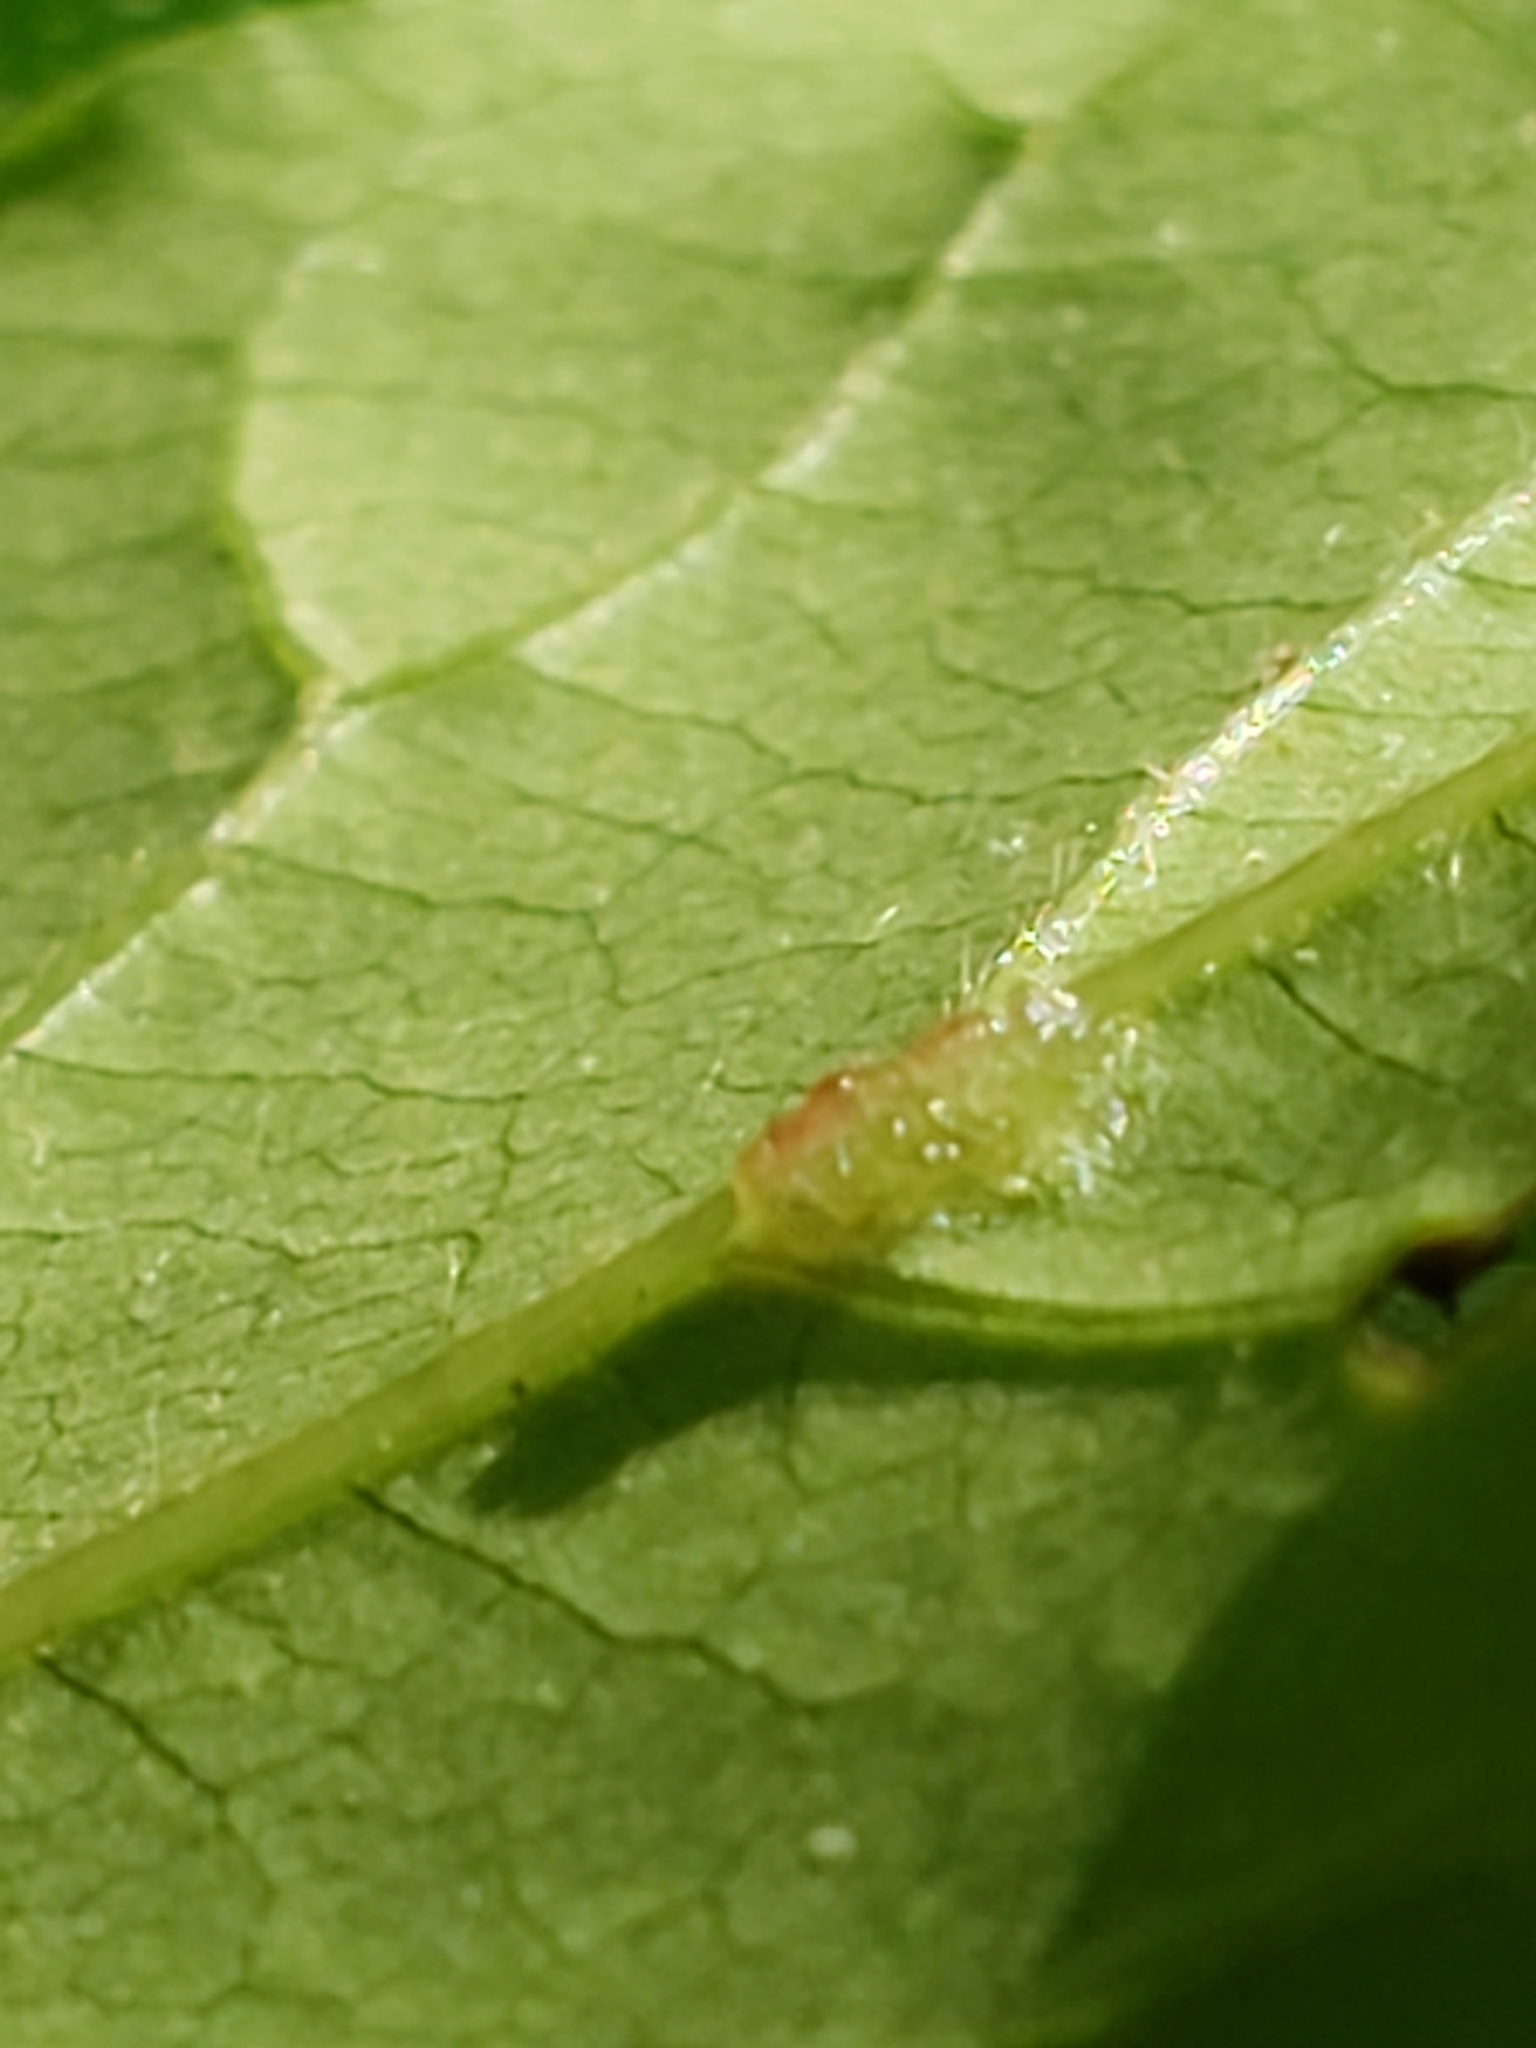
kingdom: Animalia
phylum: Arthropoda
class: Arachnida
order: Trombidiformes
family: Eriophyidae
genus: Cenalox
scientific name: Cenalox
